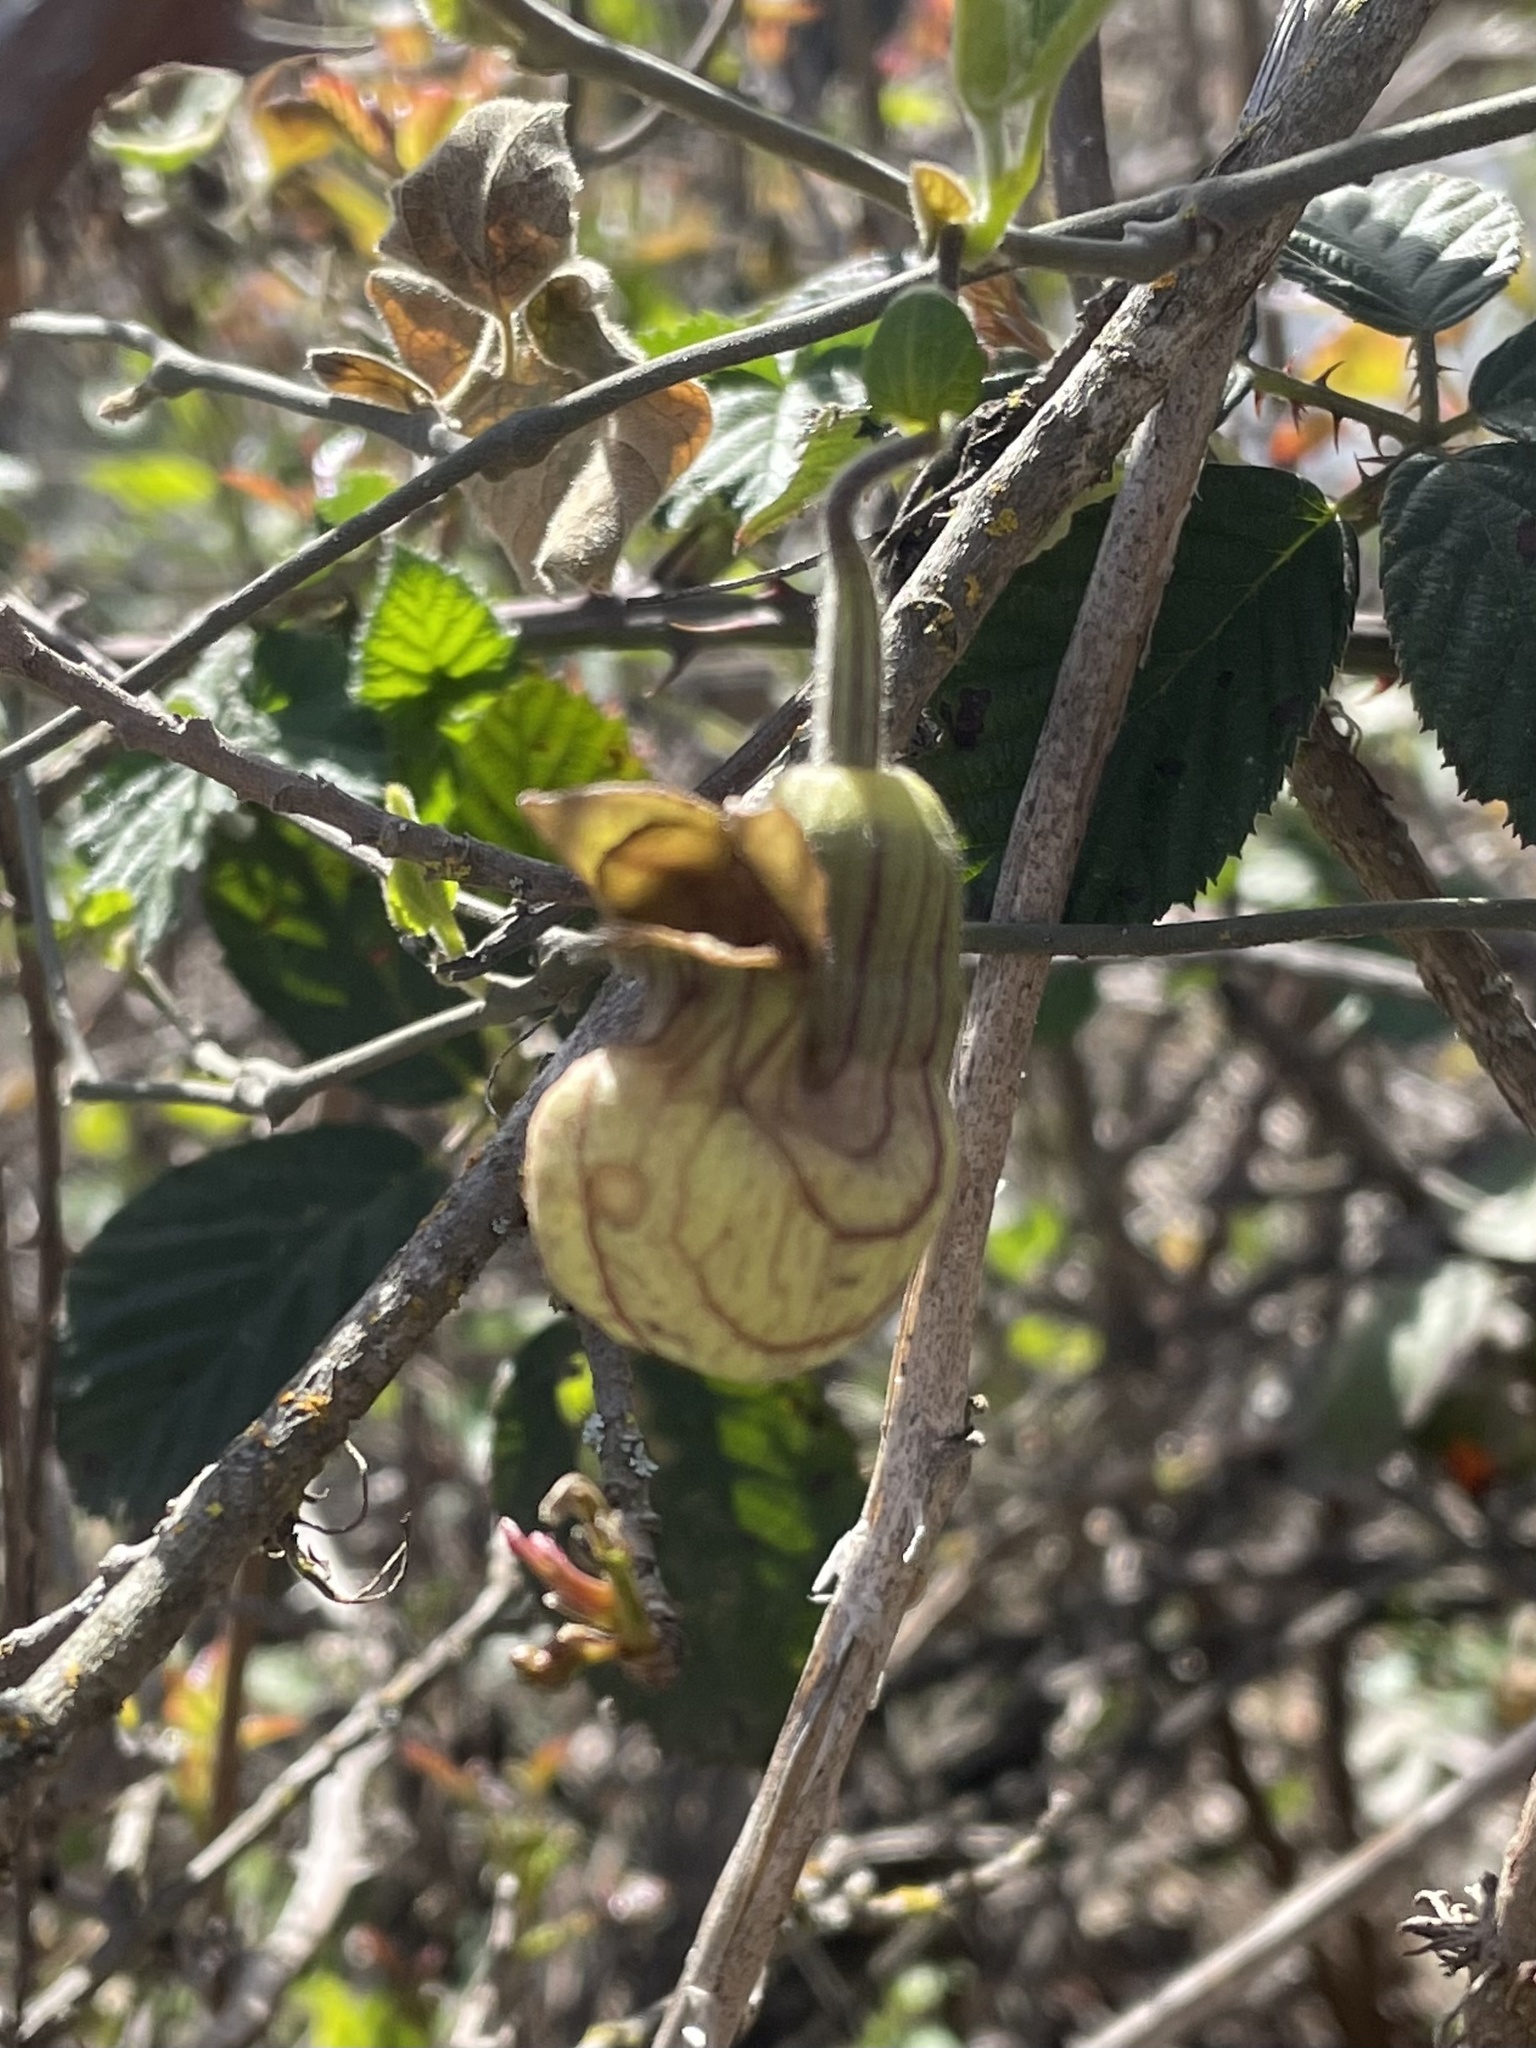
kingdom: Plantae
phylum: Tracheophyta
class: Magnoliopsida
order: Piperales
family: Aristolochiaceae
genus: Isotrema
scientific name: Isotrema californicum
